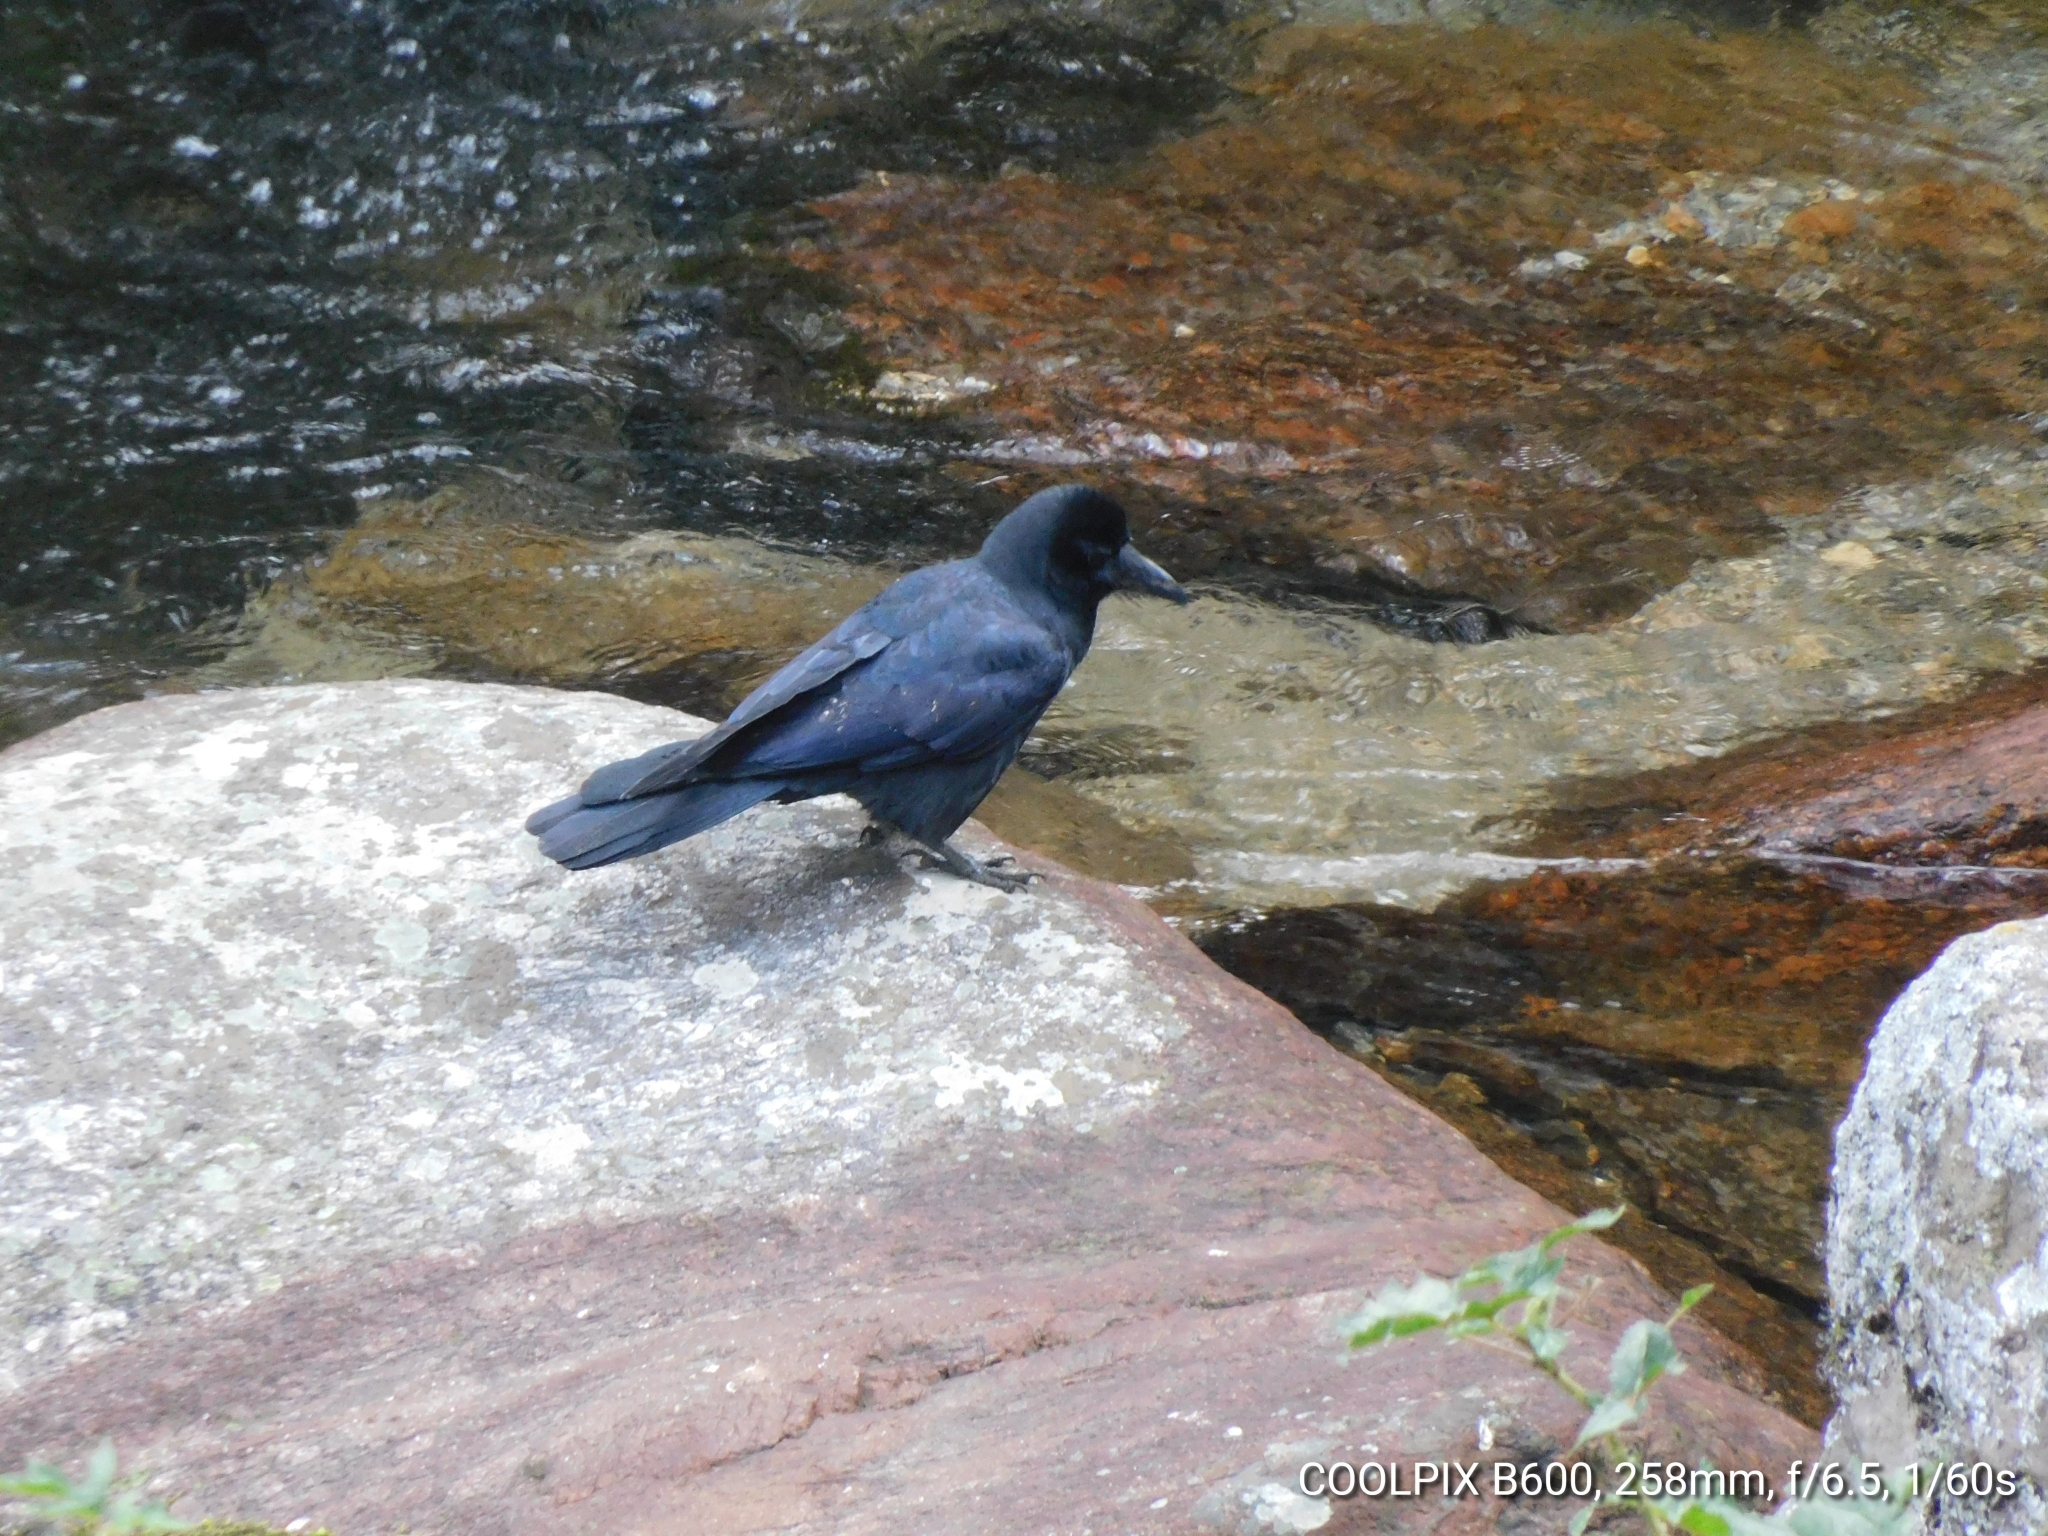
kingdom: Animalia
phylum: Chordata
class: Aves
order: Passeriformes
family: Corvidae
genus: Corvus
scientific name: Corvus macrorhynchos
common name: Large-billed crow
